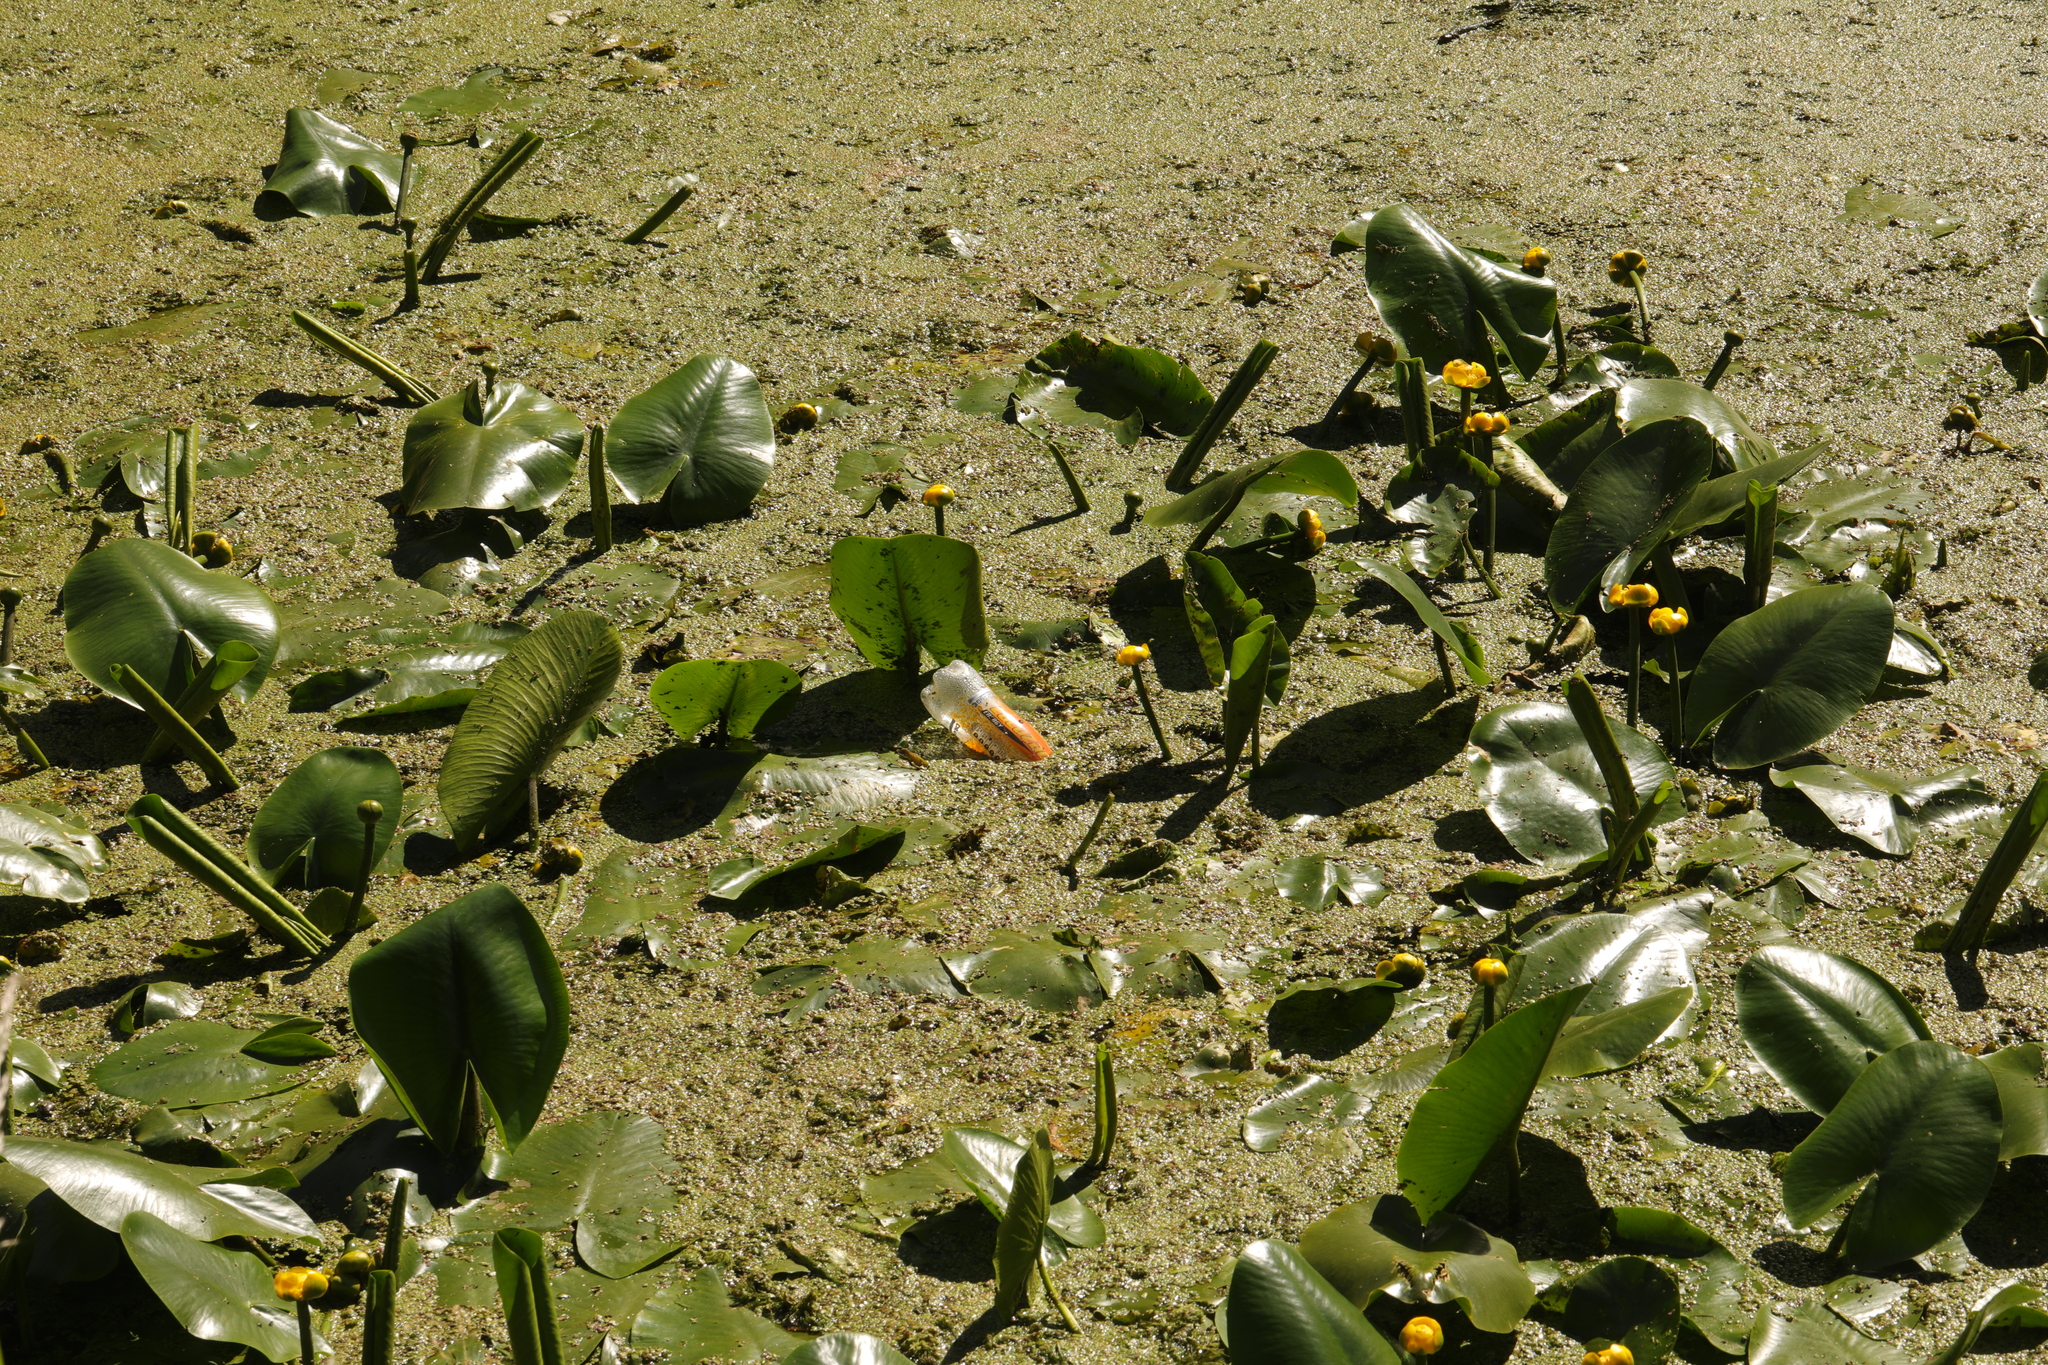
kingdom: Plantae
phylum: Tracheophyta
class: Magnoliopsida
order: Nymphaeales
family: Nymphaeaceae
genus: Nuphar
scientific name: Nuphar lutea
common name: Yellow water-lily
